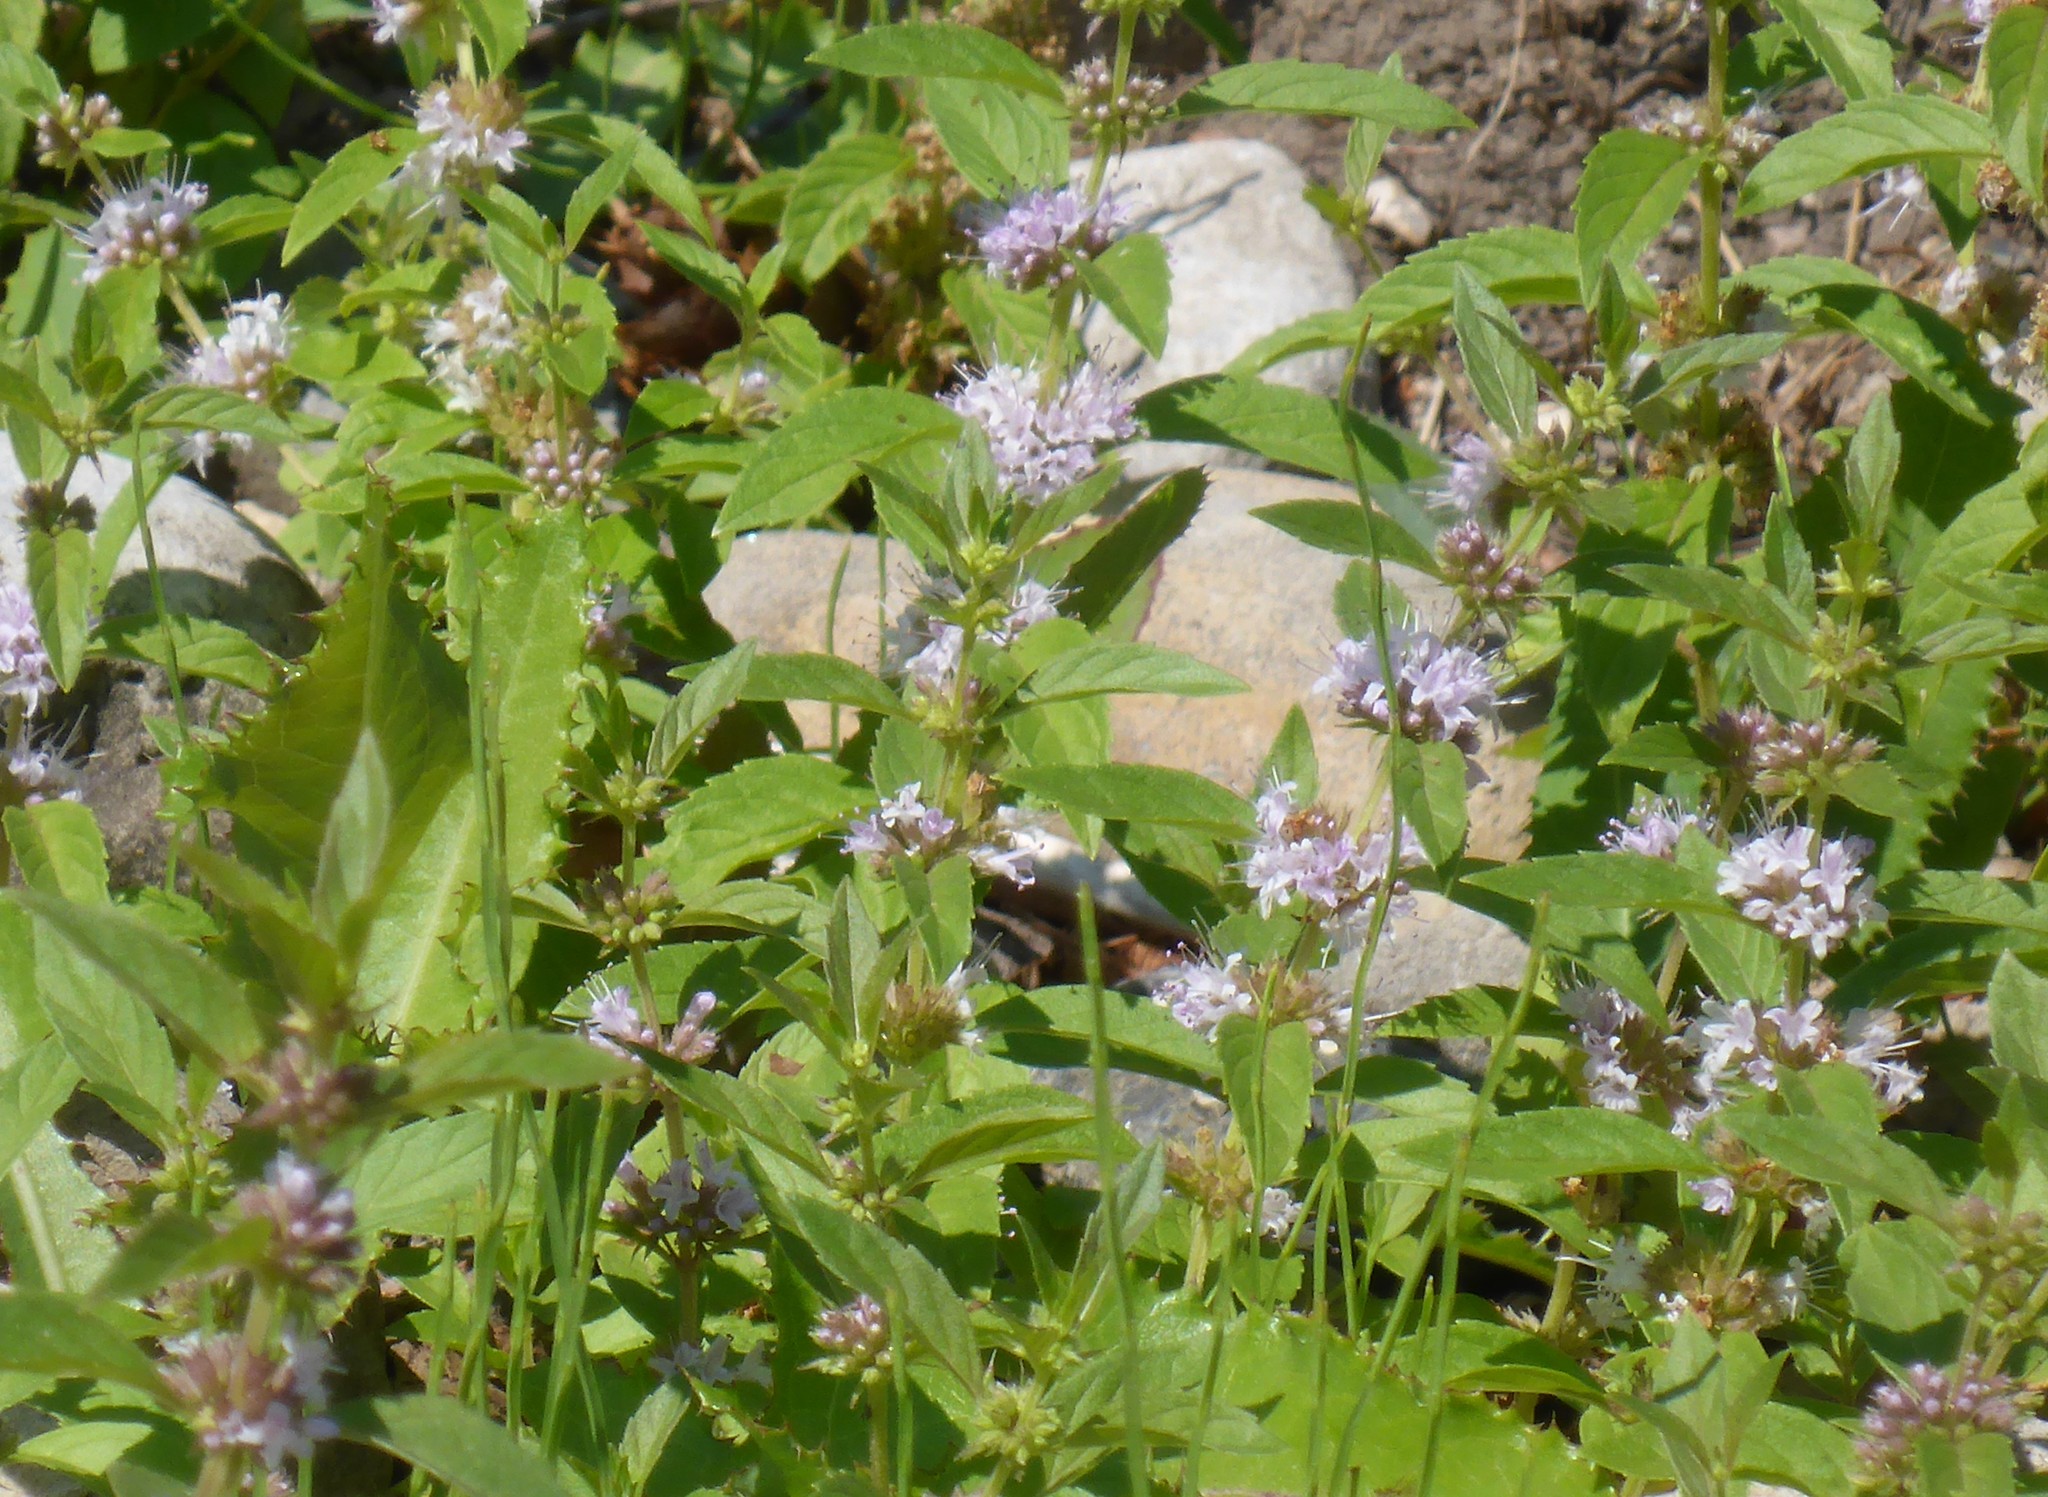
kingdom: Plantae
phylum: Tracheophyta
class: Magnoliopsida
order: Lamiales
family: Lamiaceae
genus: Mentha
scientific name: Mentha canadensis
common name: American corn mint
